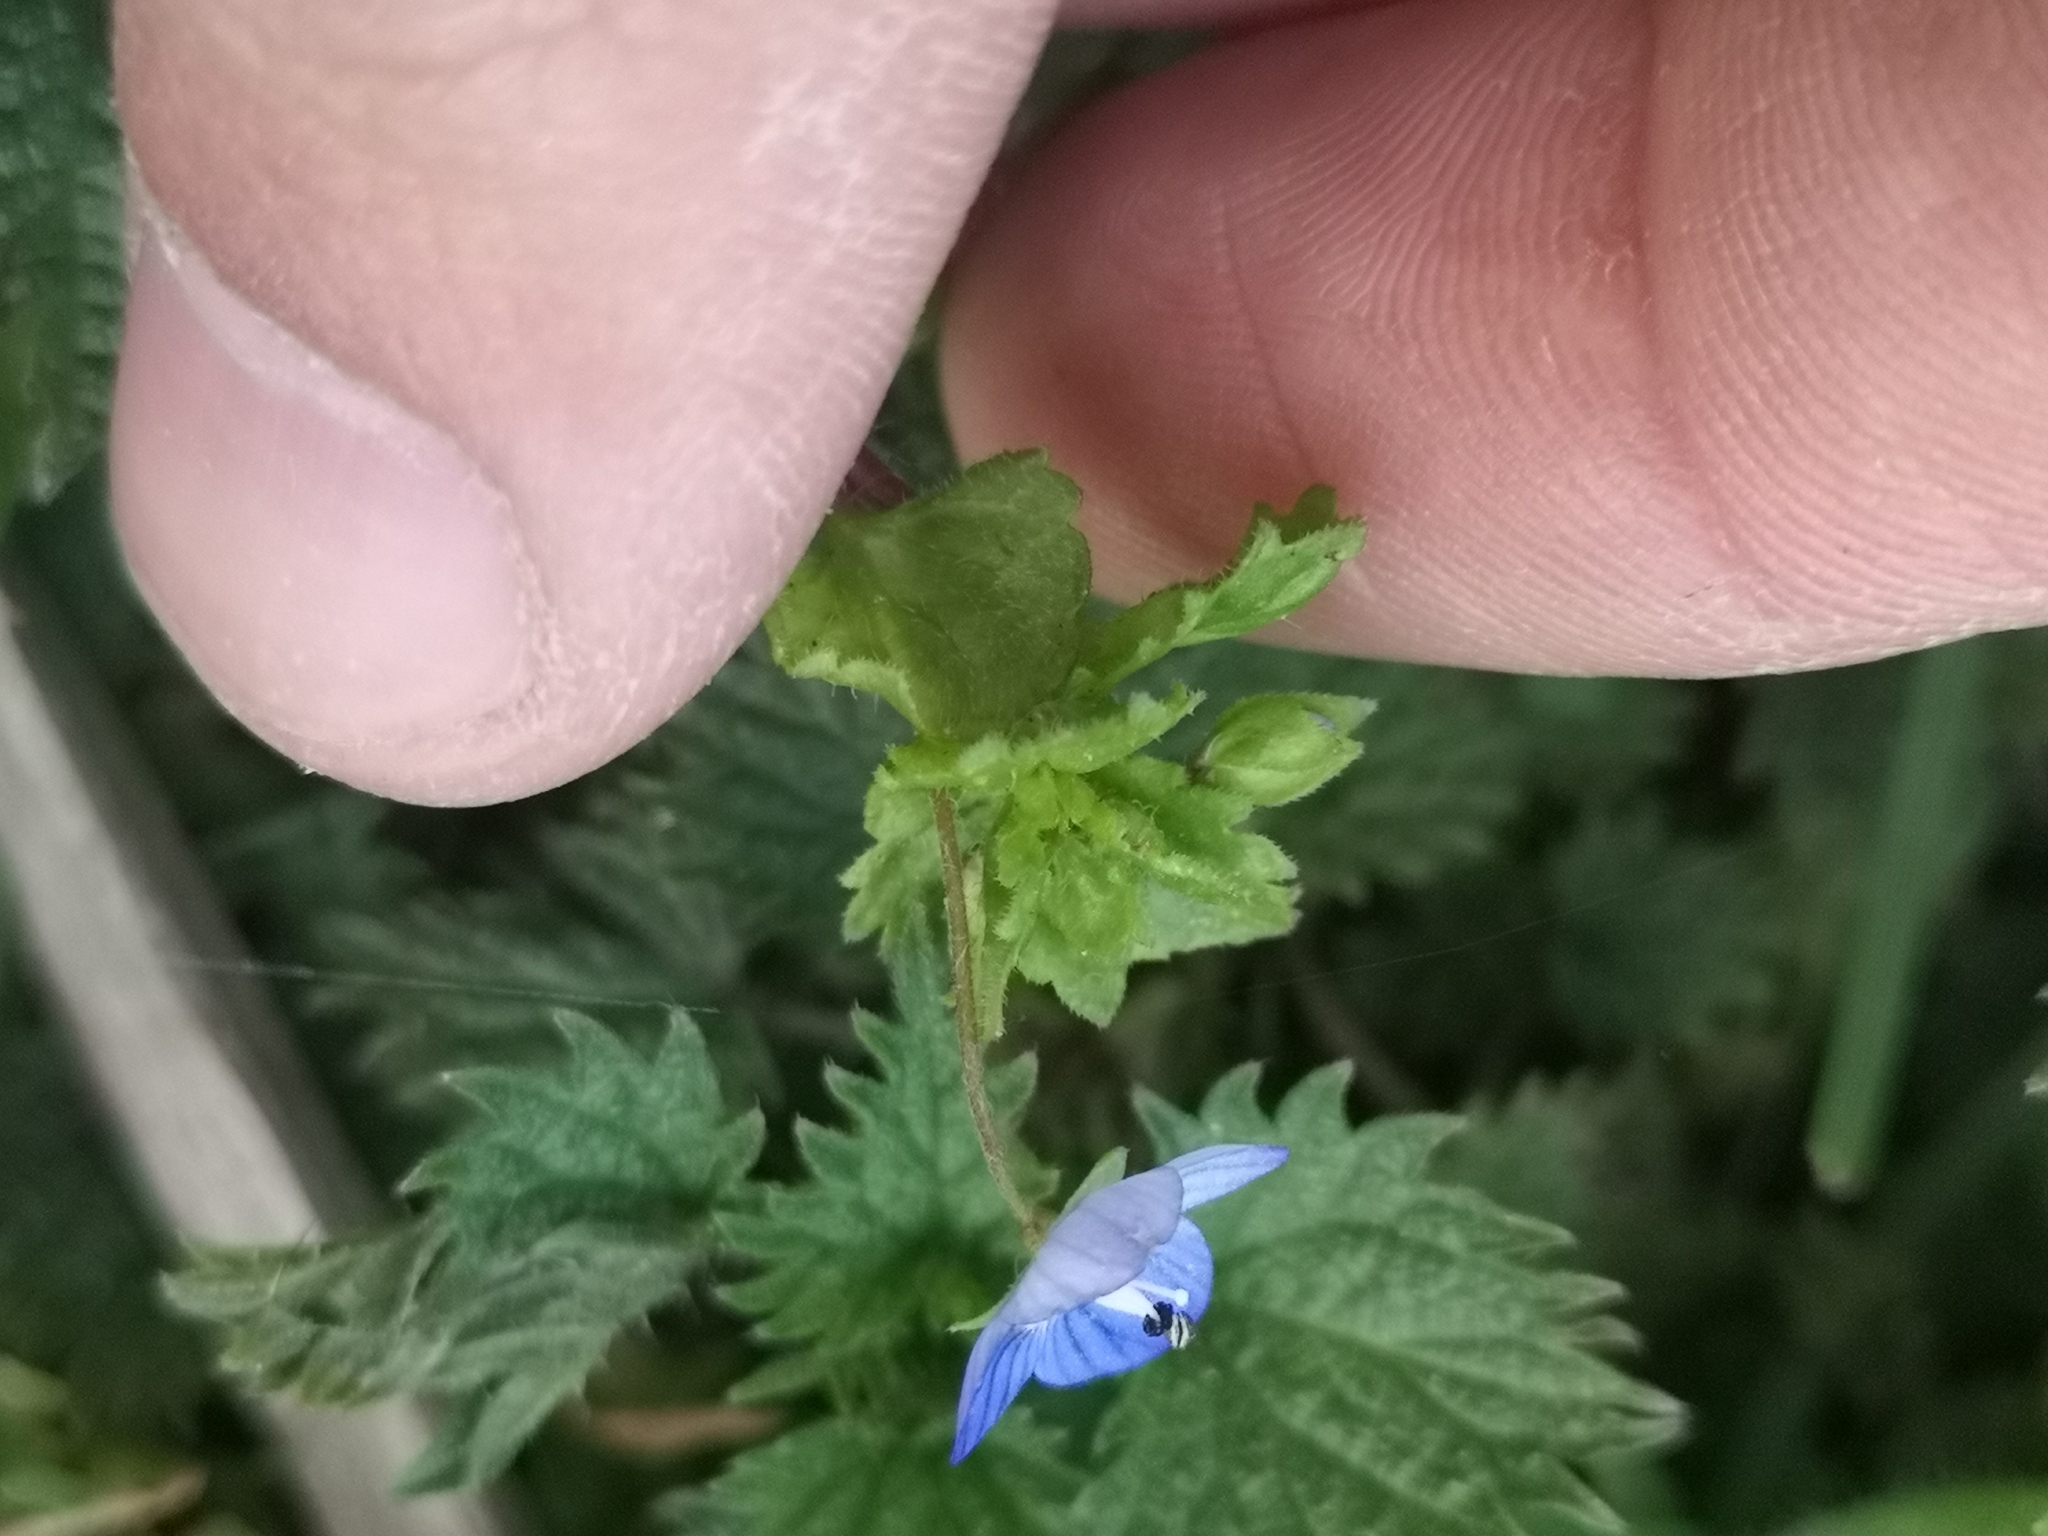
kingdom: Plantae
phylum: Tracheophyta
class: Magnoliopsida
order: Lamiales
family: Plantaginaceae
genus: Veronica
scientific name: Veronica persica
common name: Common field-speedwell
